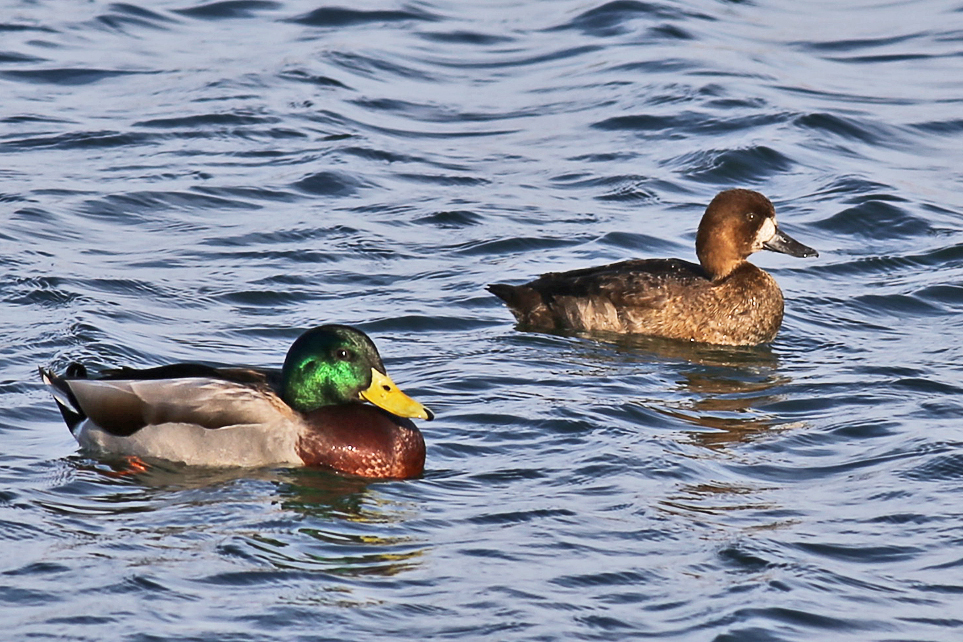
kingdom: Animalia
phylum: Chordata
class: Aves
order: Anseriformes
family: Anatidae
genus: Anas
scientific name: Anas platyrhynchos
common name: Mallard
